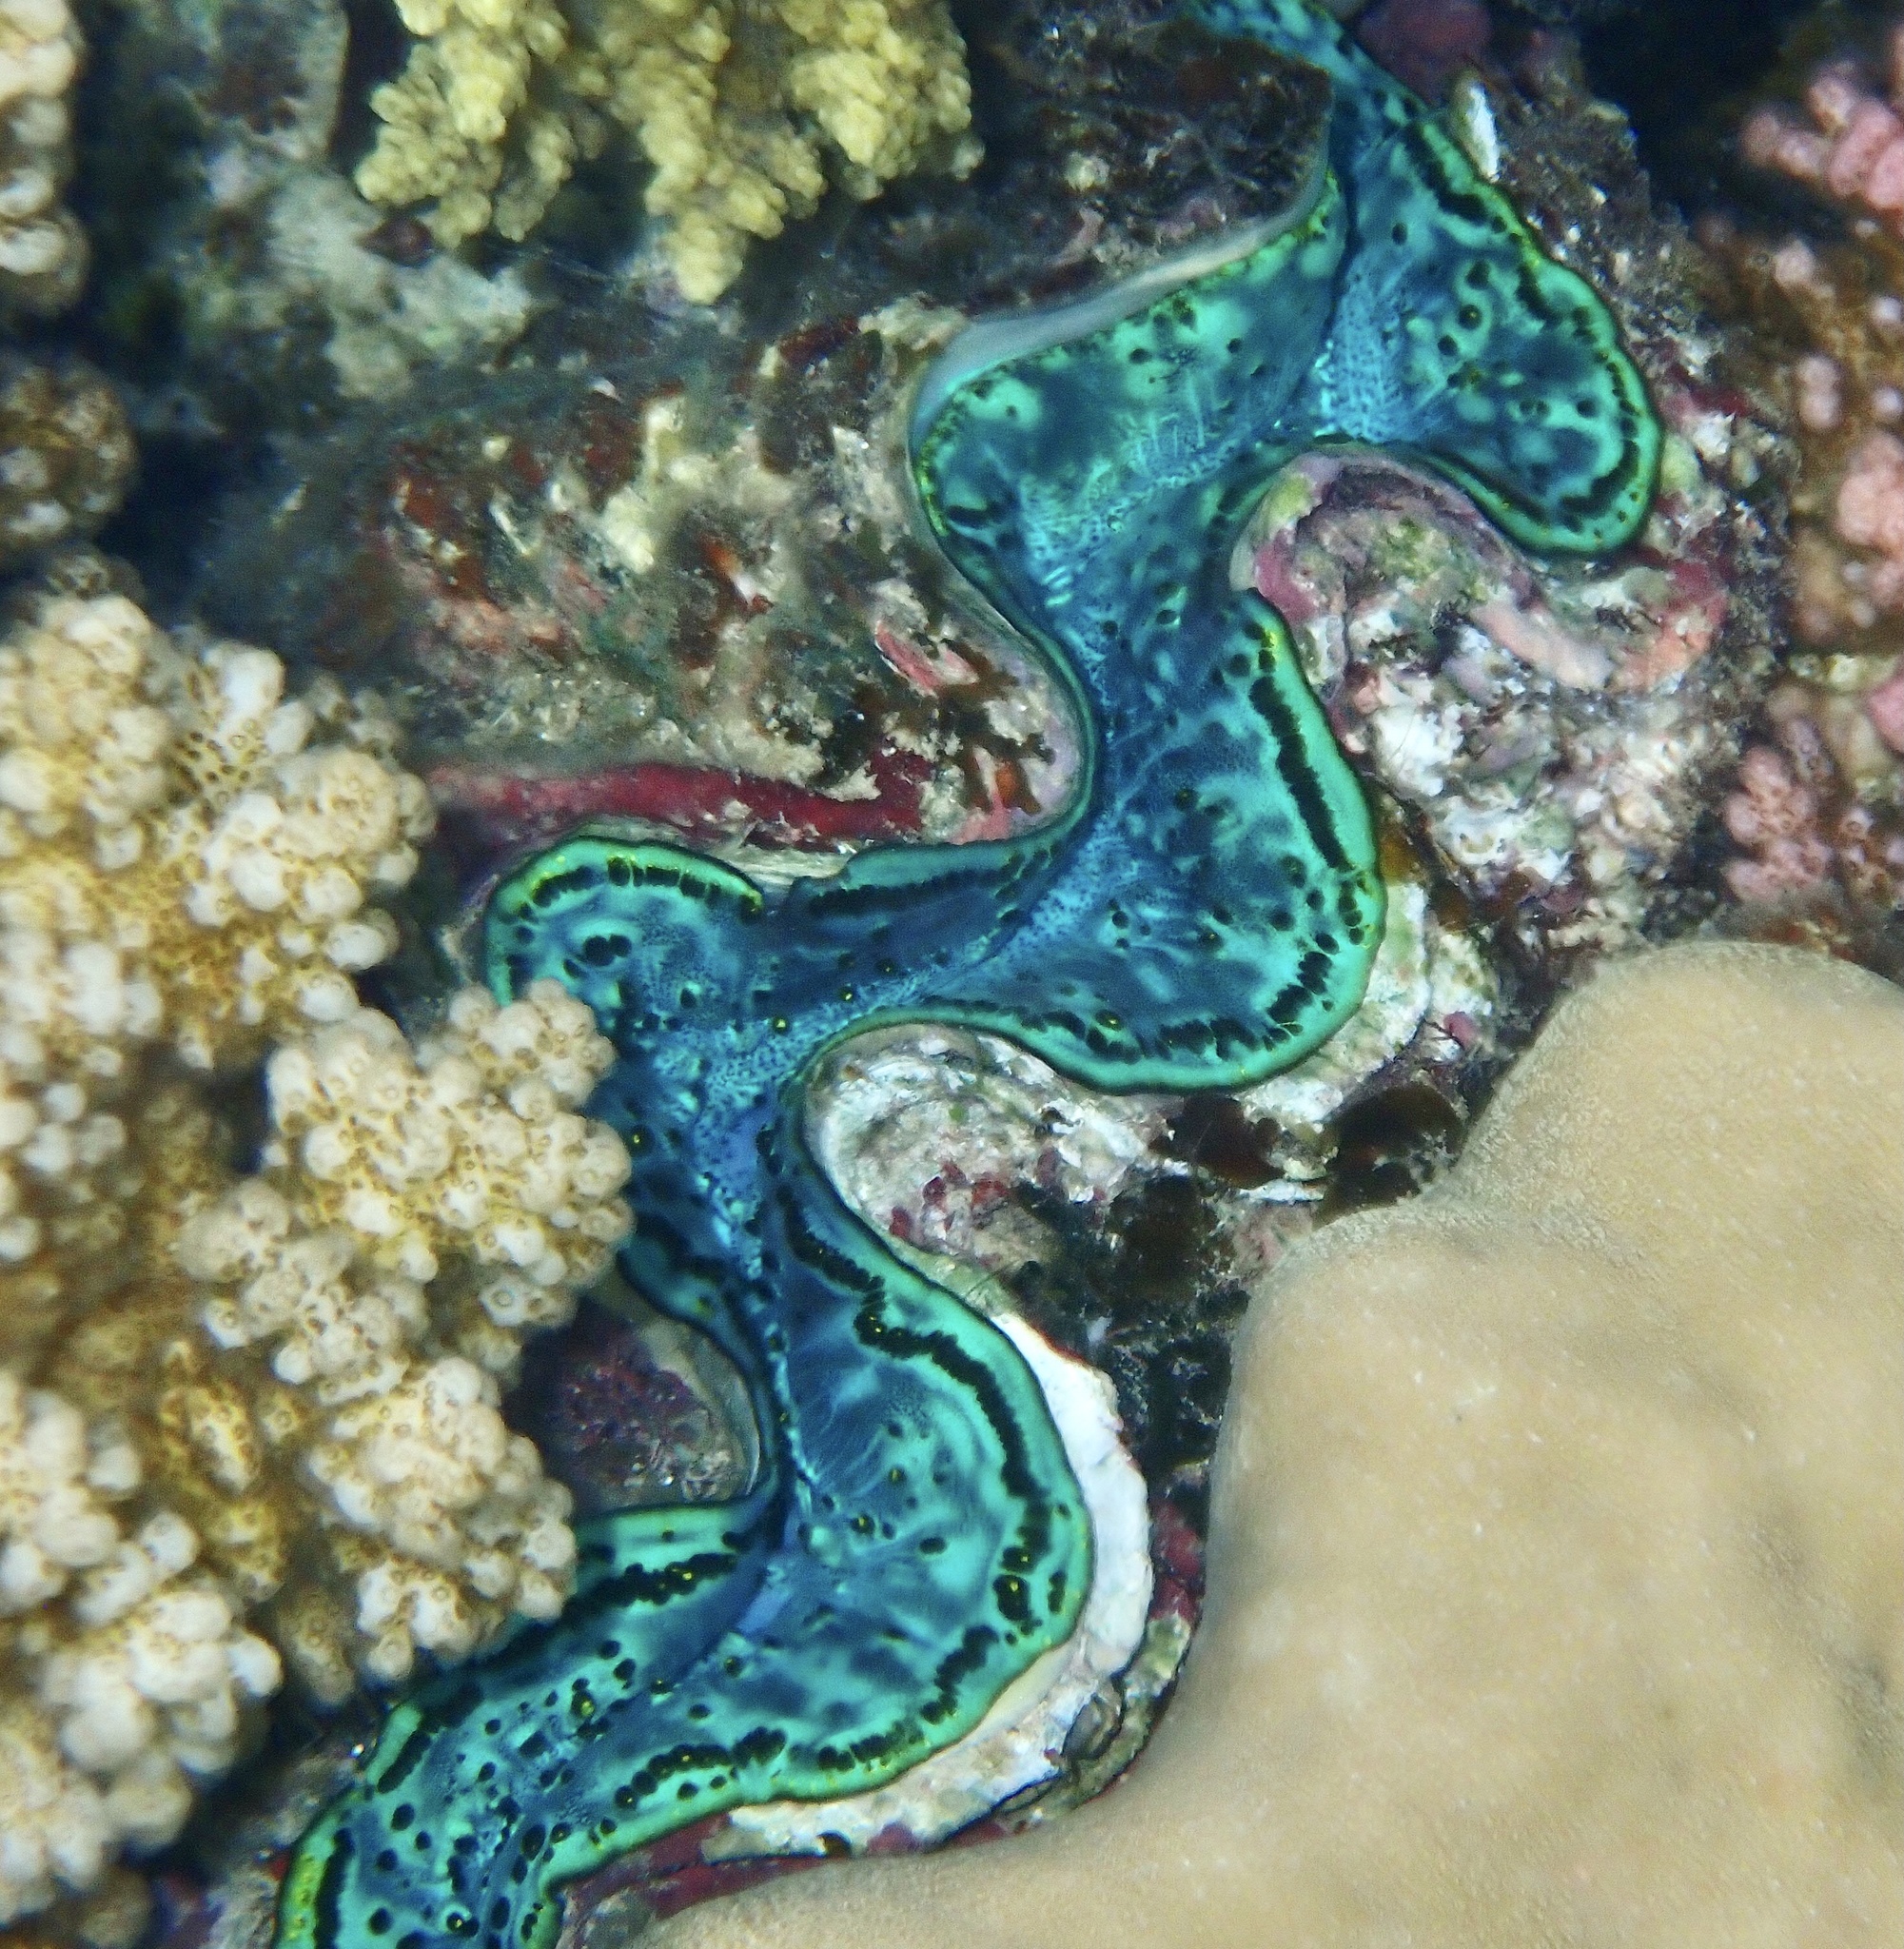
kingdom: Animalia
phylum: Mollusca
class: Bivalvia
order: Cardiida
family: Cardiidae
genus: Tridacna
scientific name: Tridacna maxima
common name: Small giant clam
